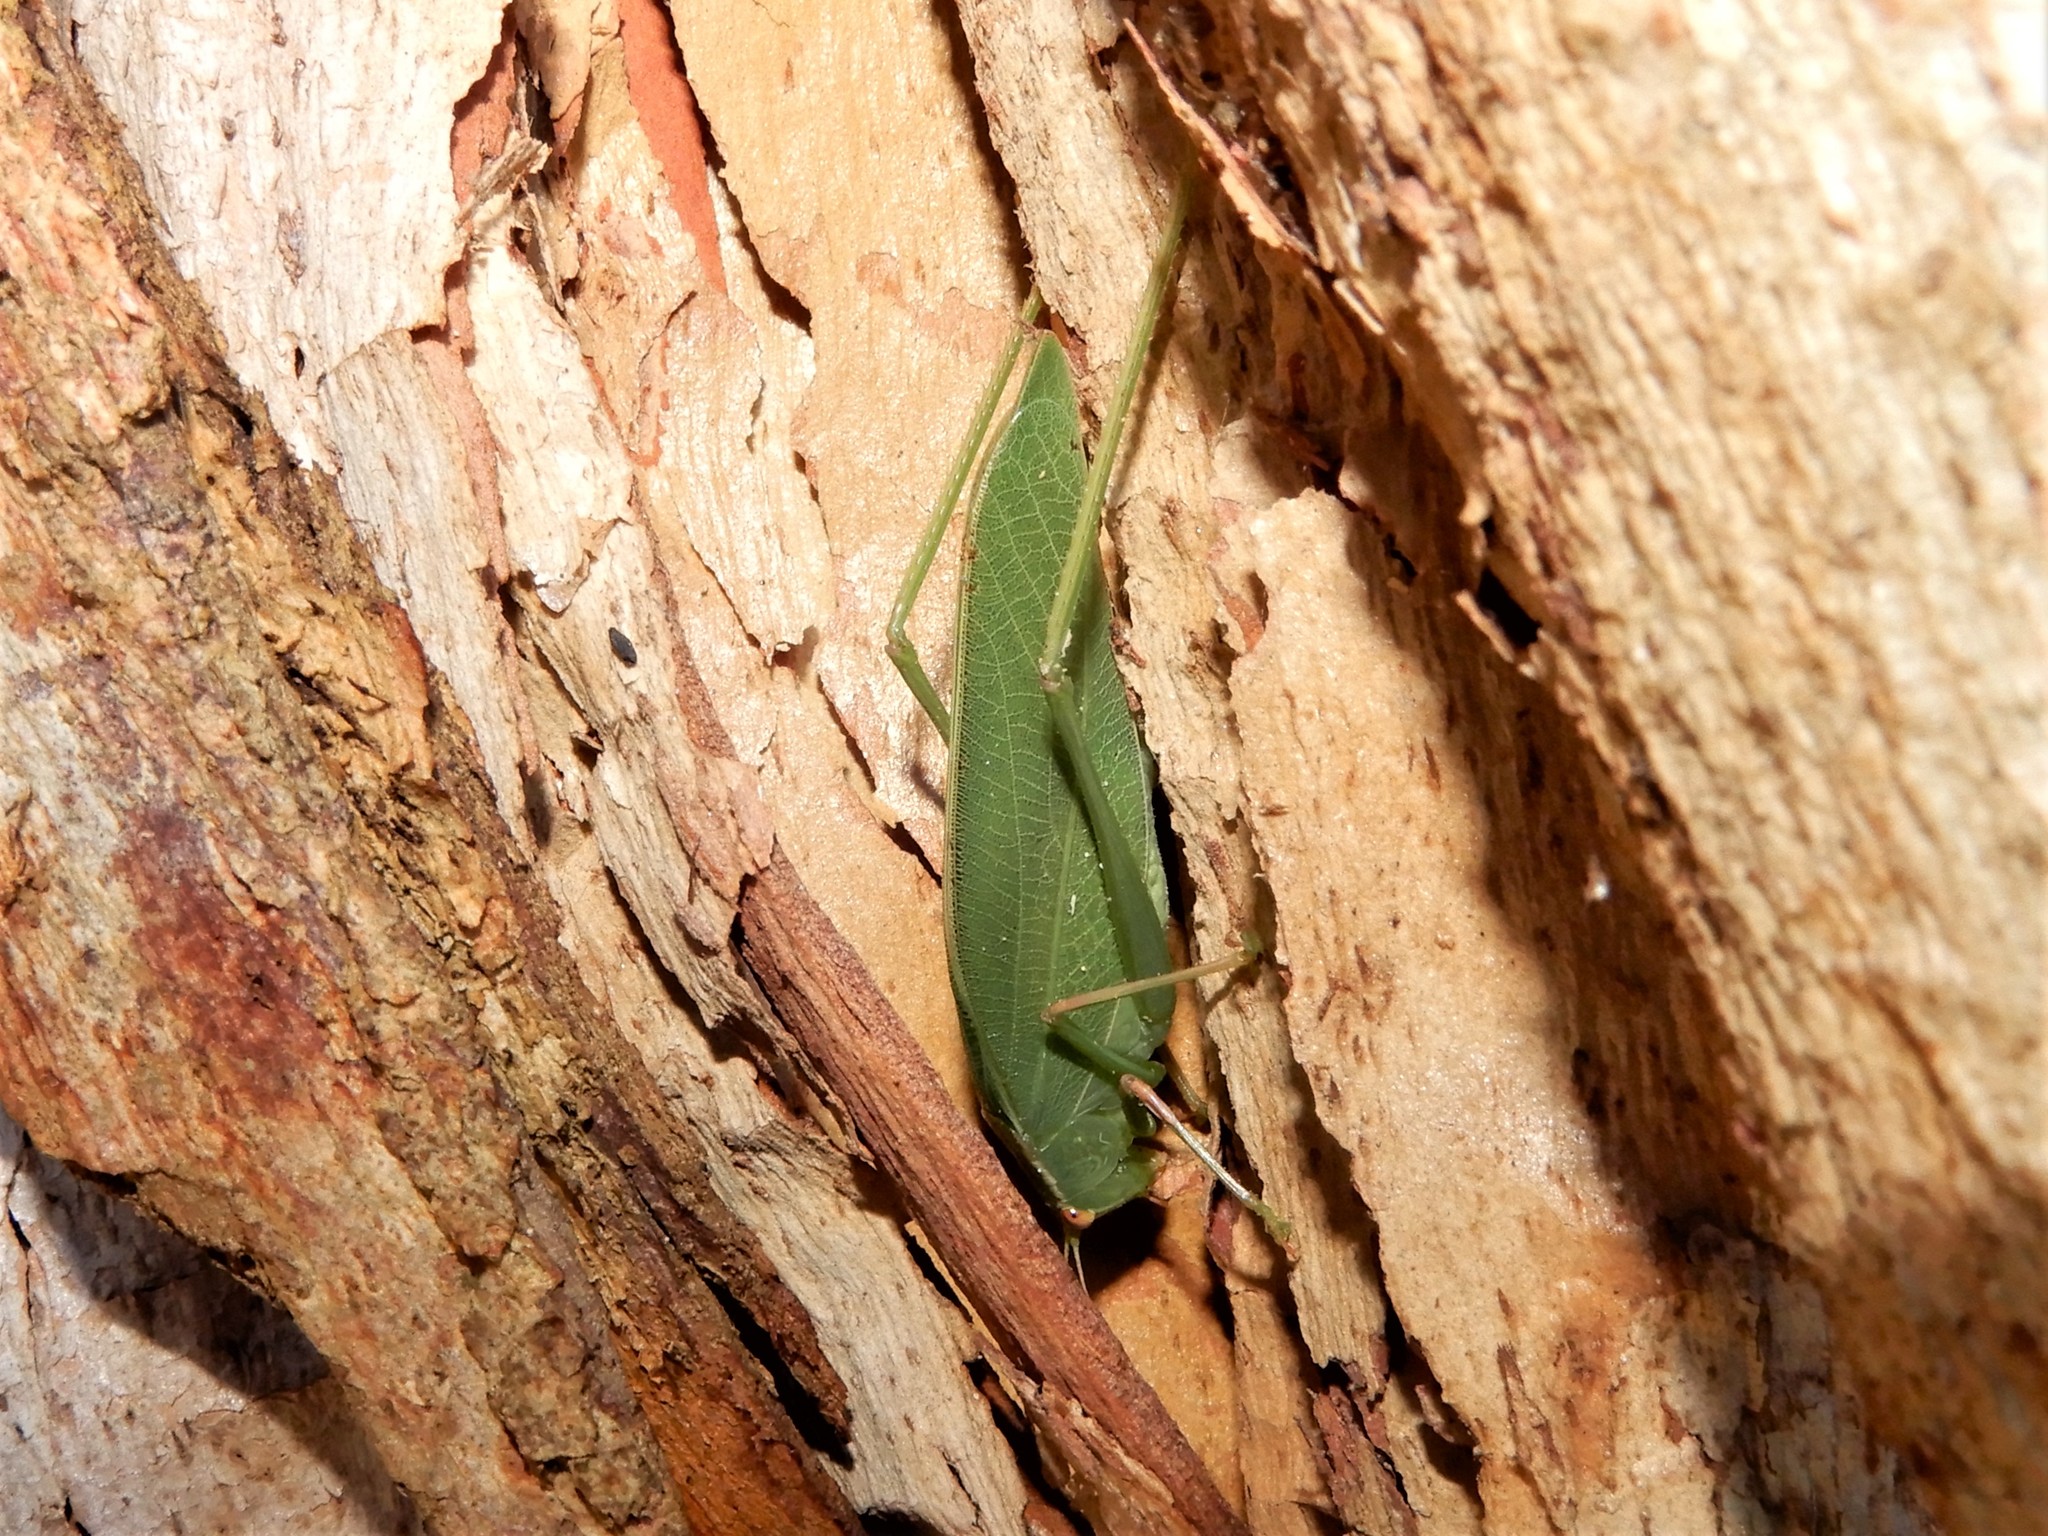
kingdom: Animalia
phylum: Arthropoda
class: Insecta
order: Orthoptera
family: Tettigoniidae
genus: Caedicia
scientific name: Caedicia simplex
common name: Common garden katydid
